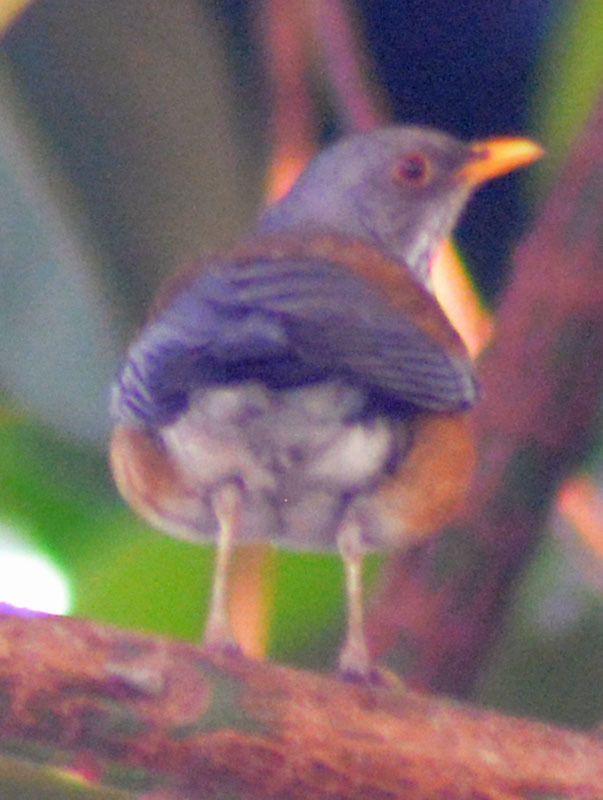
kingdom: Animalia
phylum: Chordata
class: Aves
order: Passeriformes
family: Turdidae
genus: Turdus
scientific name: Turdus rufopalliatus
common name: Rufous-backed robin
